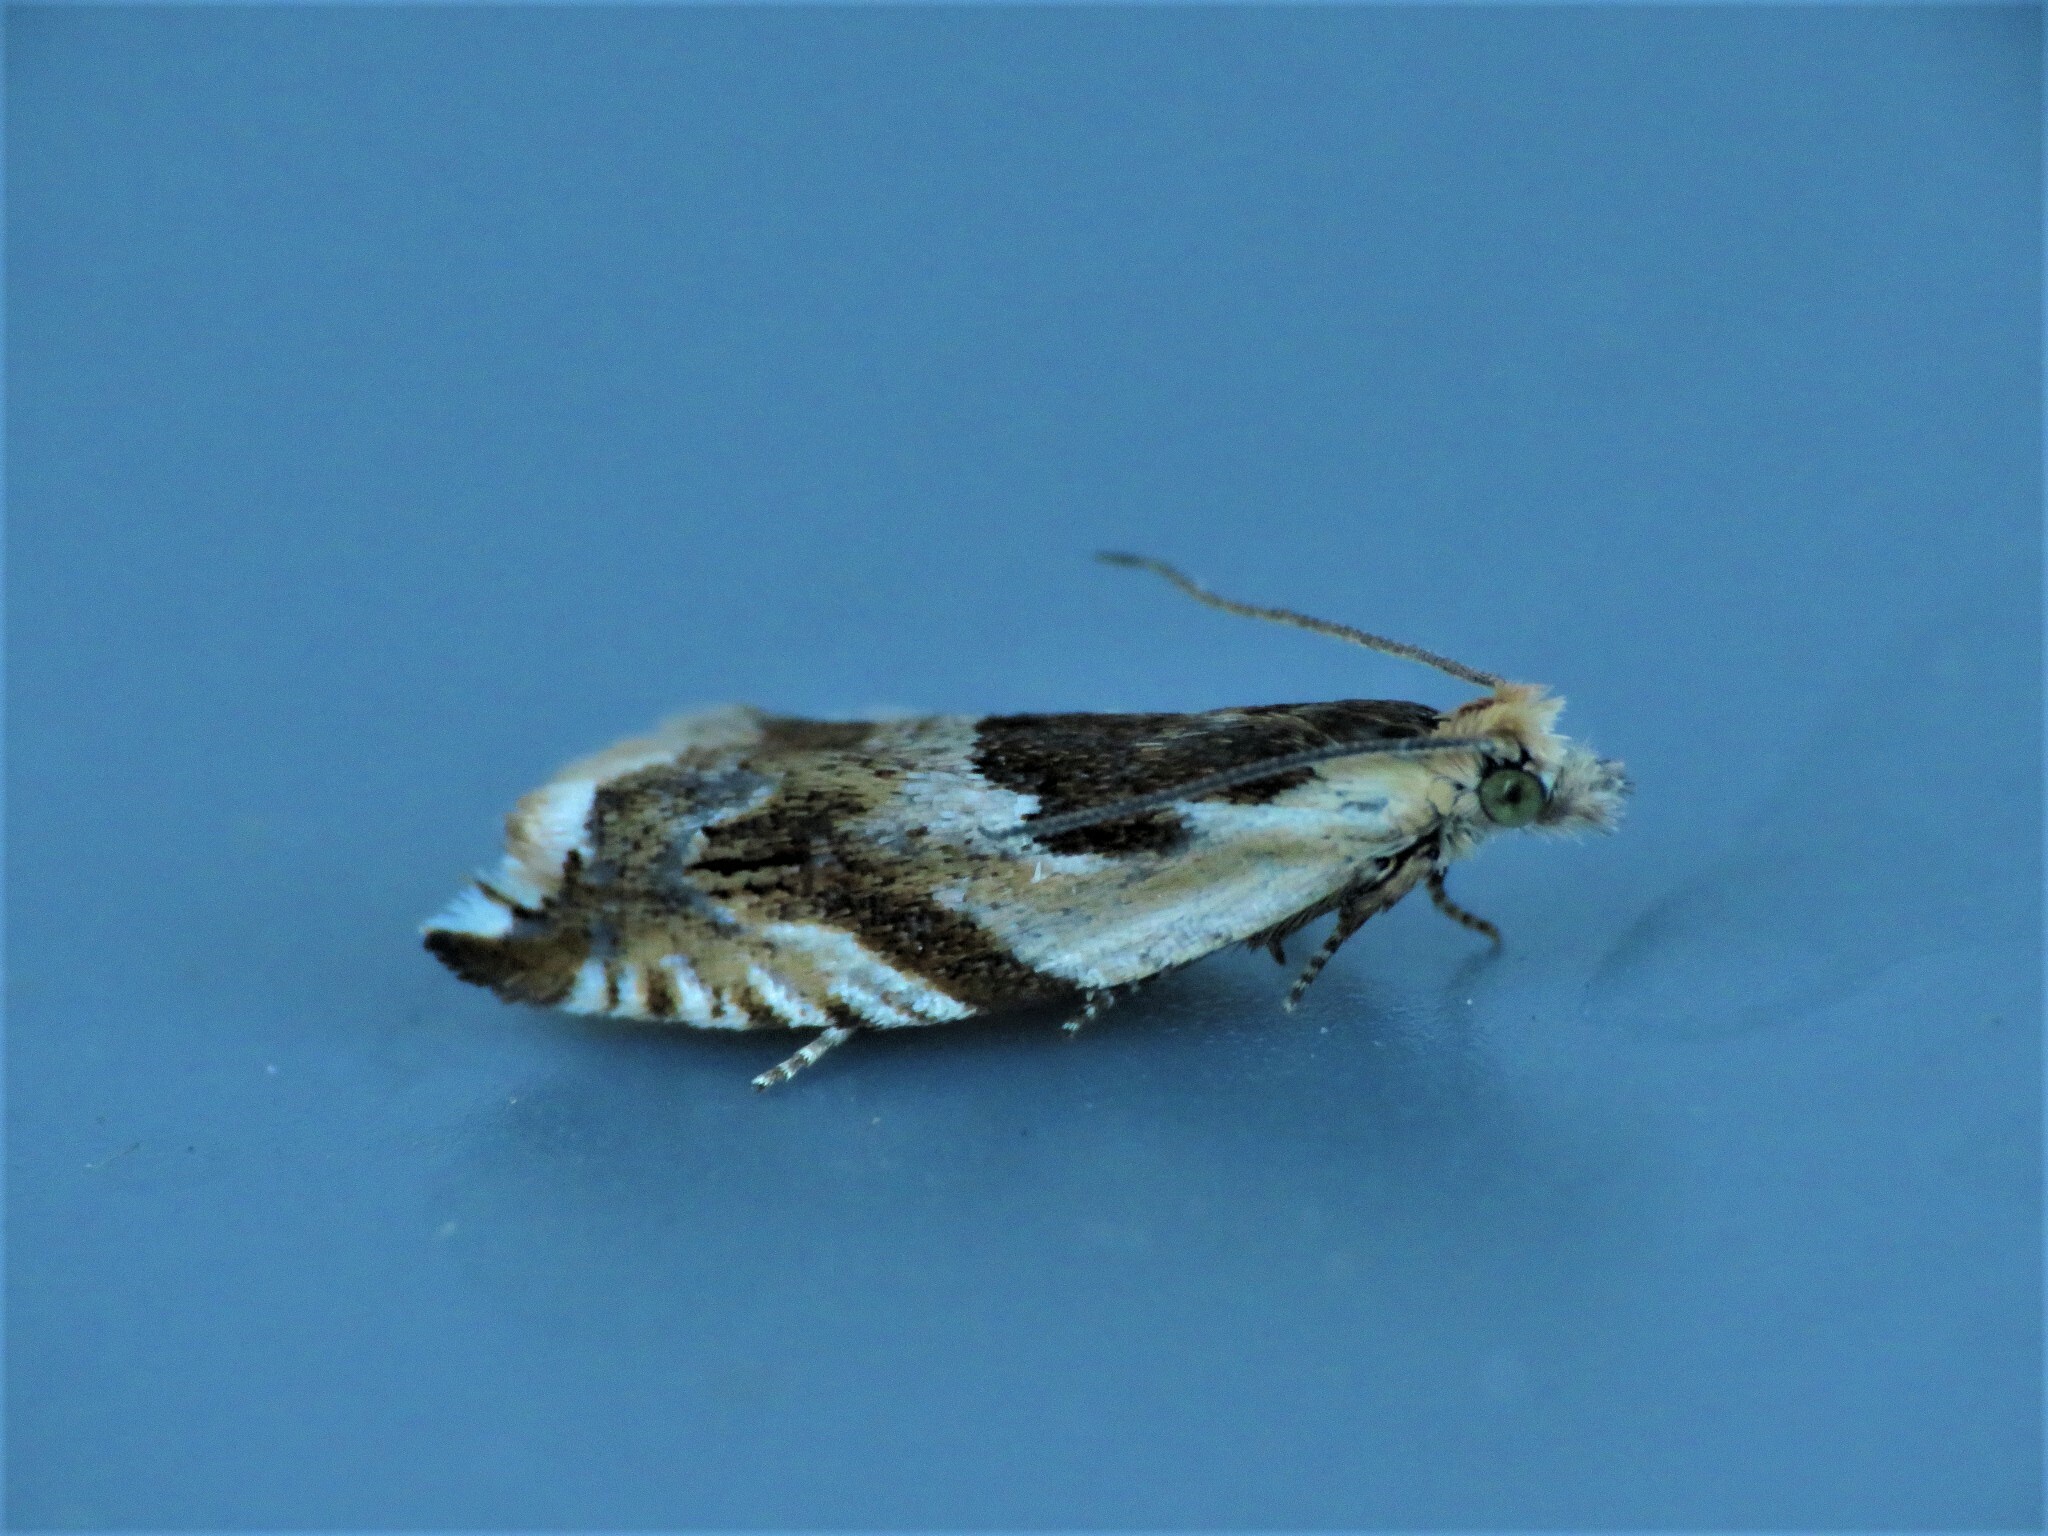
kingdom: Animalia
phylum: Arthropoda
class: Insecta
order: Lepidoptera
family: Tortricidae
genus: Ancylis
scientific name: Ancylis maritima
